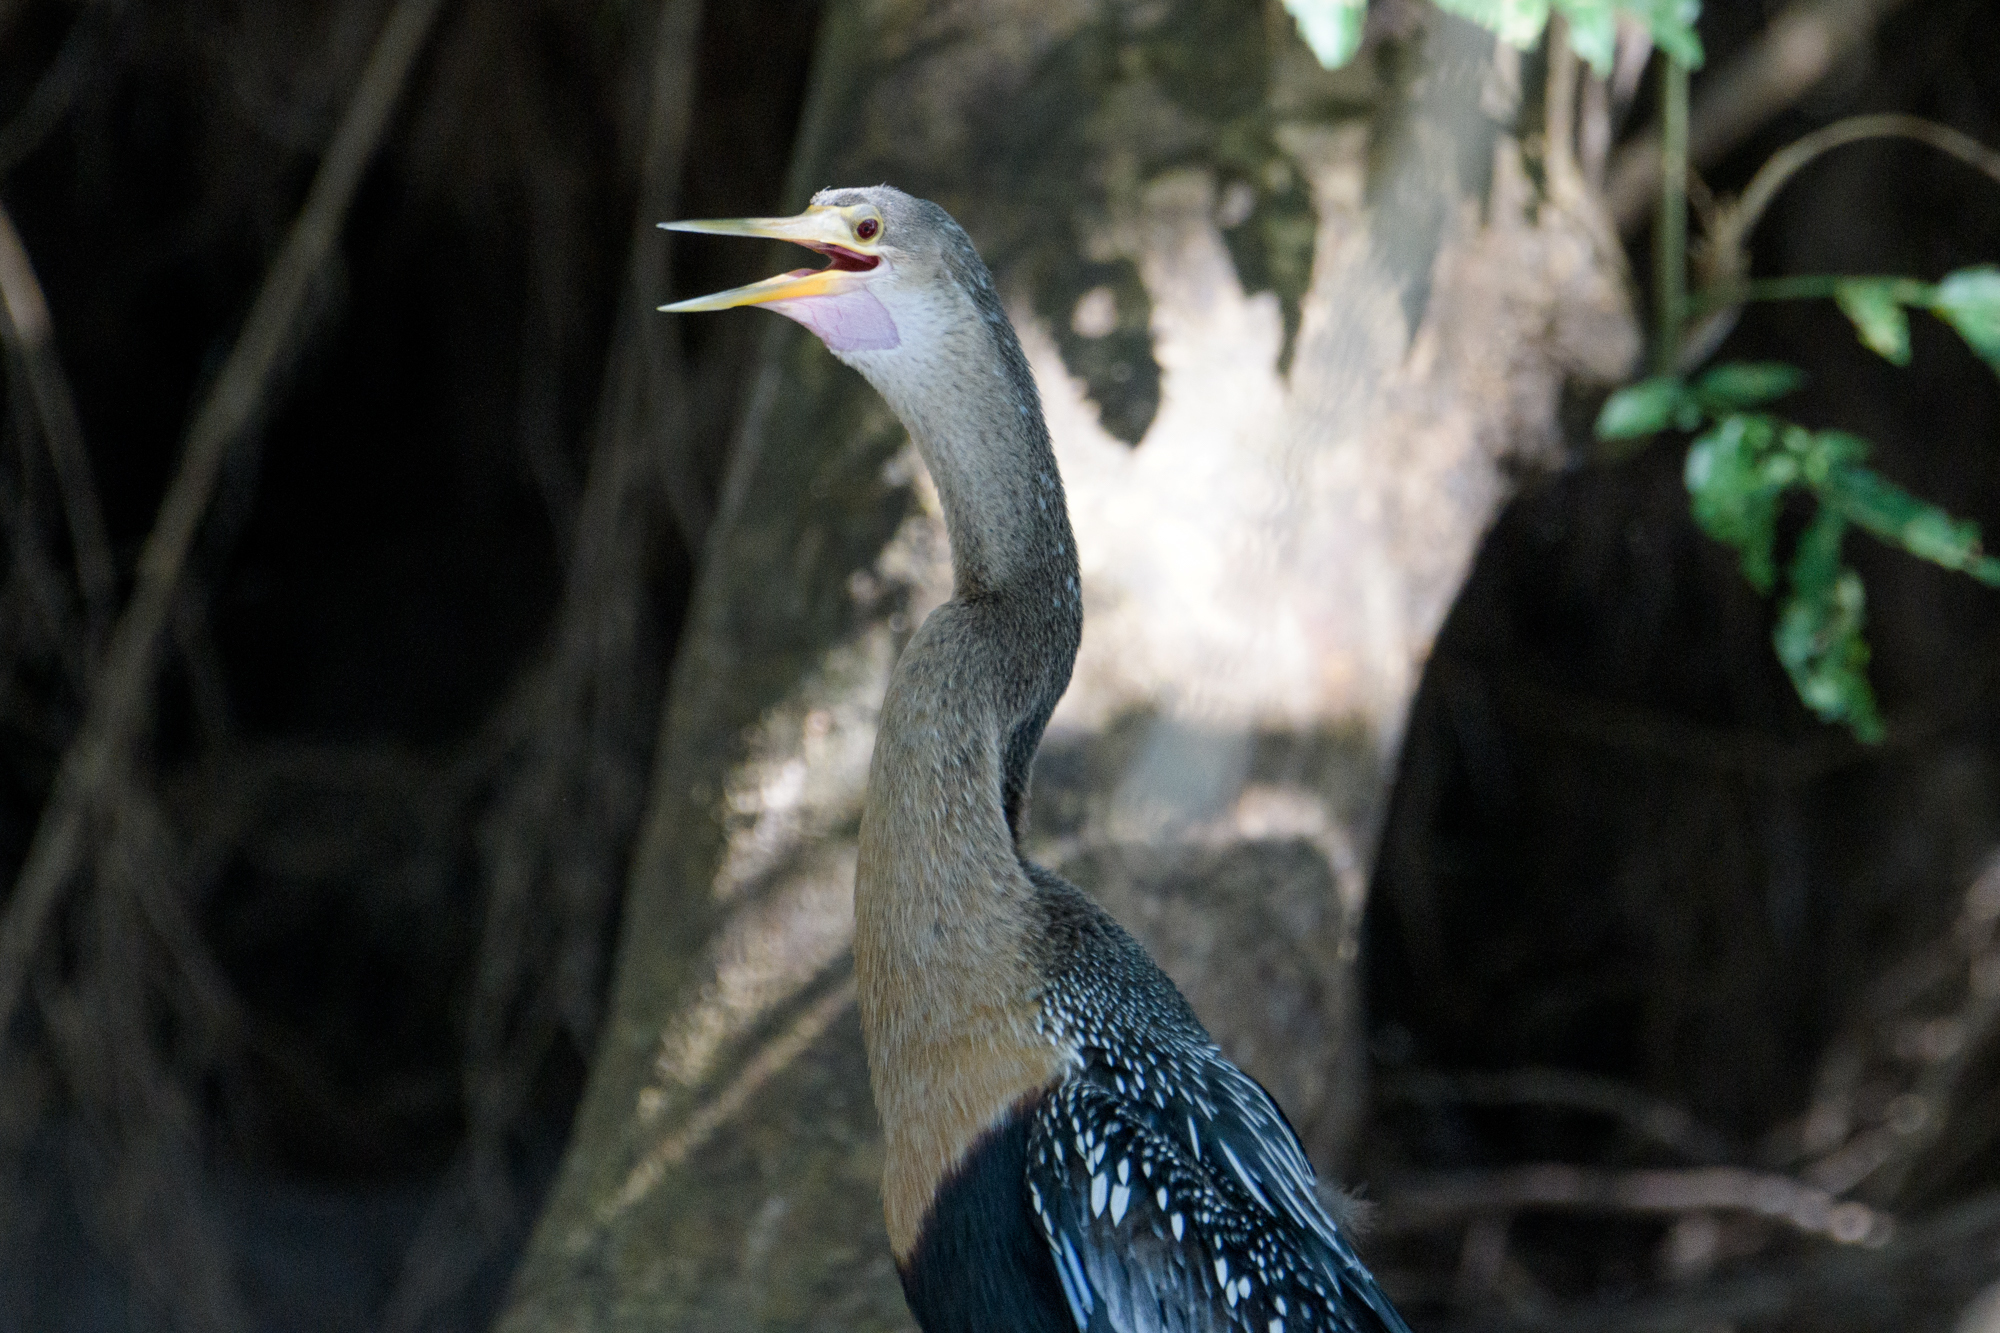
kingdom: Animalia
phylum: Chordata
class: Aves
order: Suliformes
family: Anhingidae
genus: Anhinga
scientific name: Anhinga anhinga
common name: Anhinga
